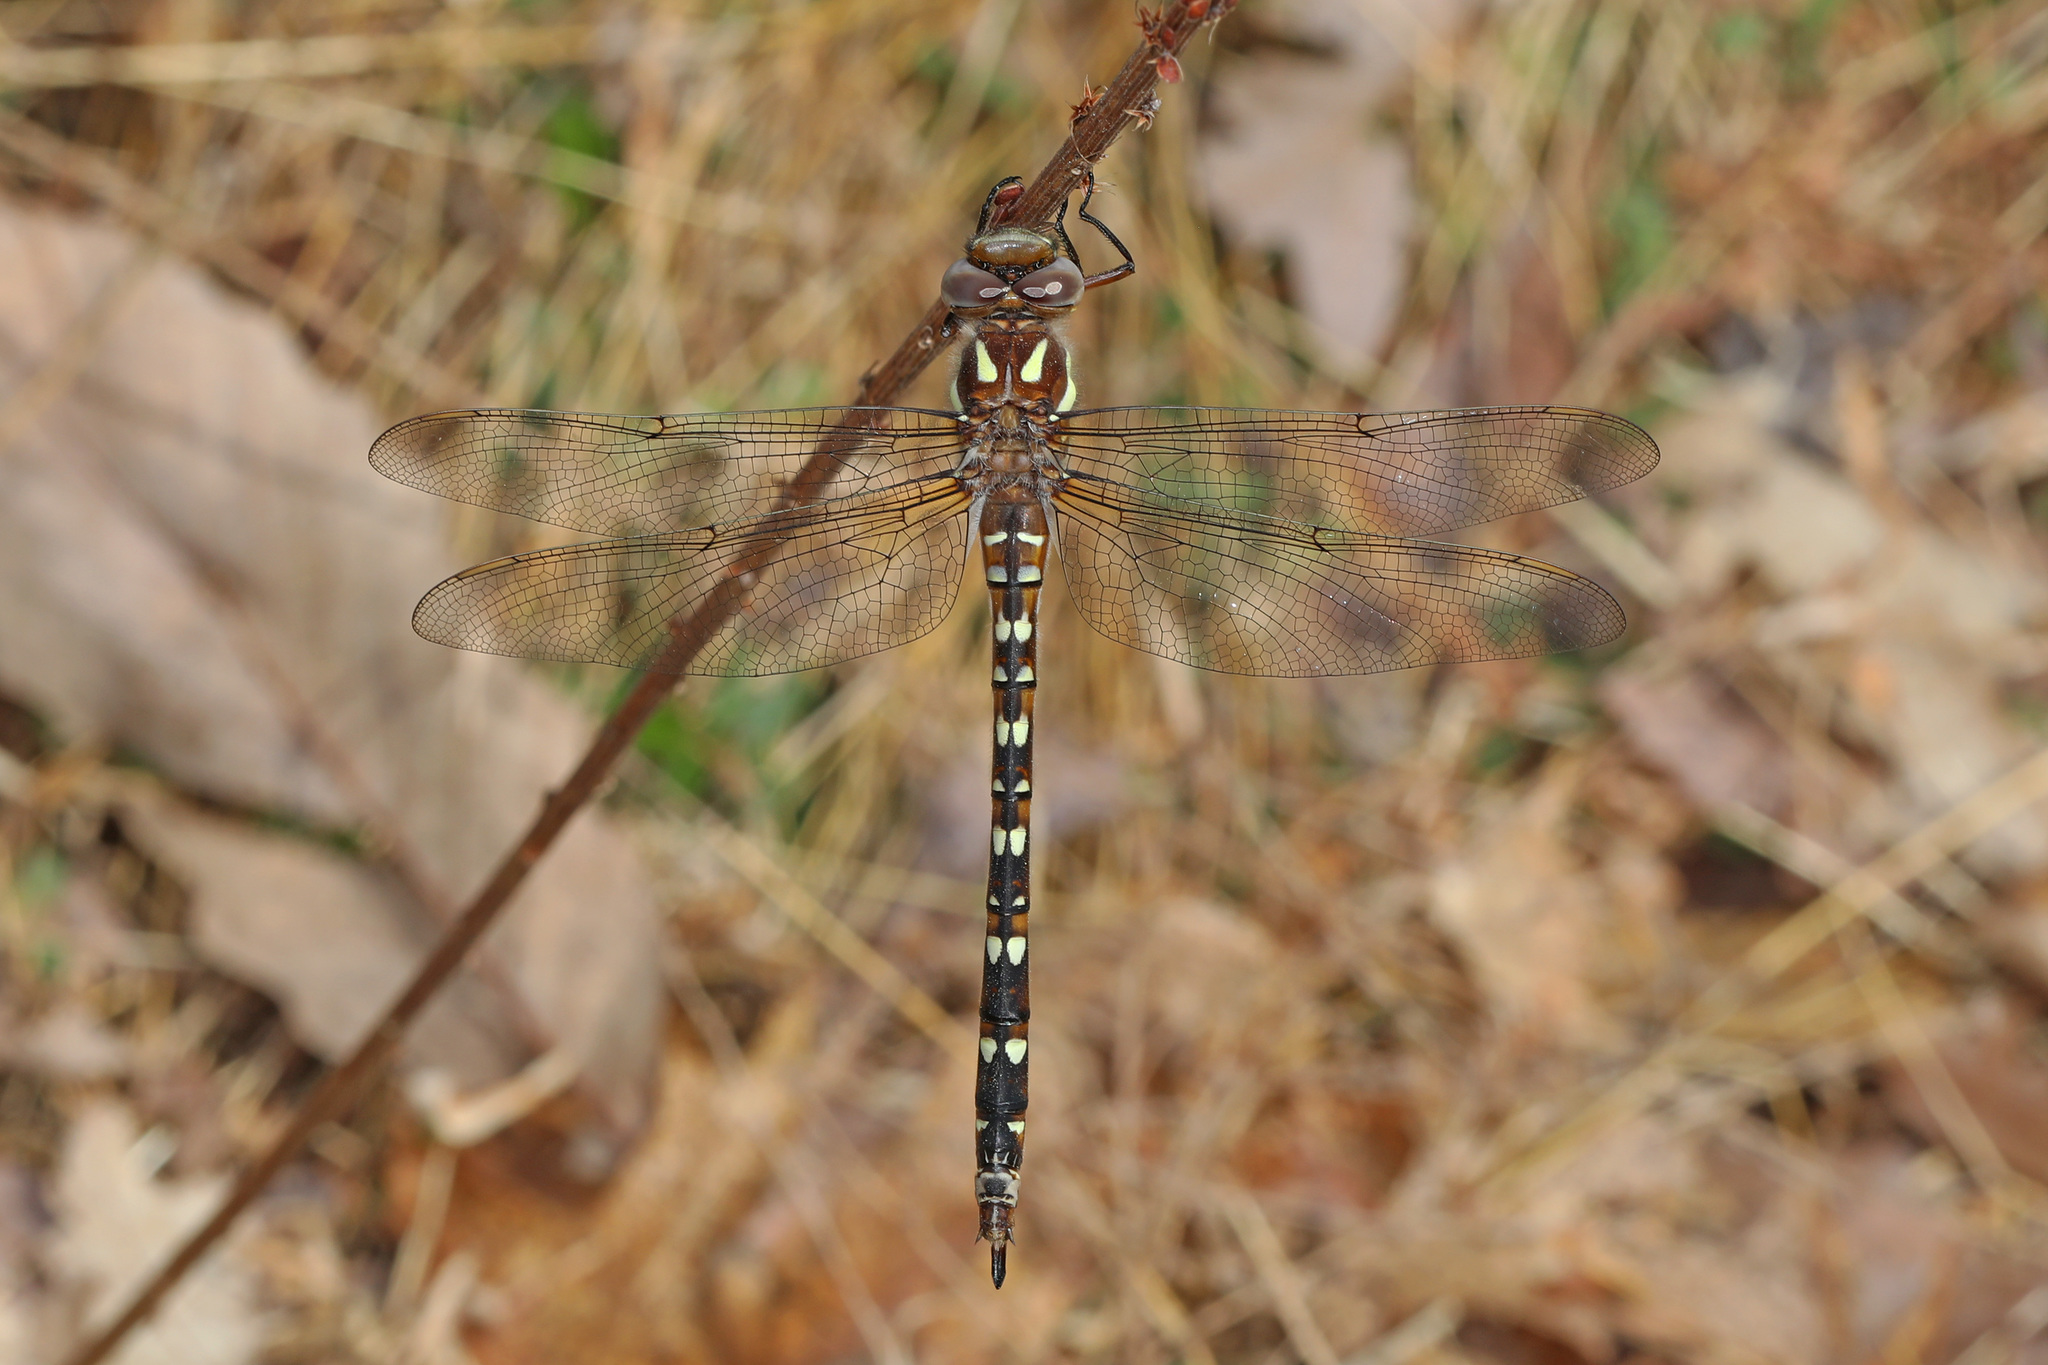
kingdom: Animalia
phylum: Arthropoda
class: Insecta
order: Odonata
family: Cordulegastridae
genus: Cordulegaster
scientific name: Cordulegaster maculata
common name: Twin-spotted spiketail
